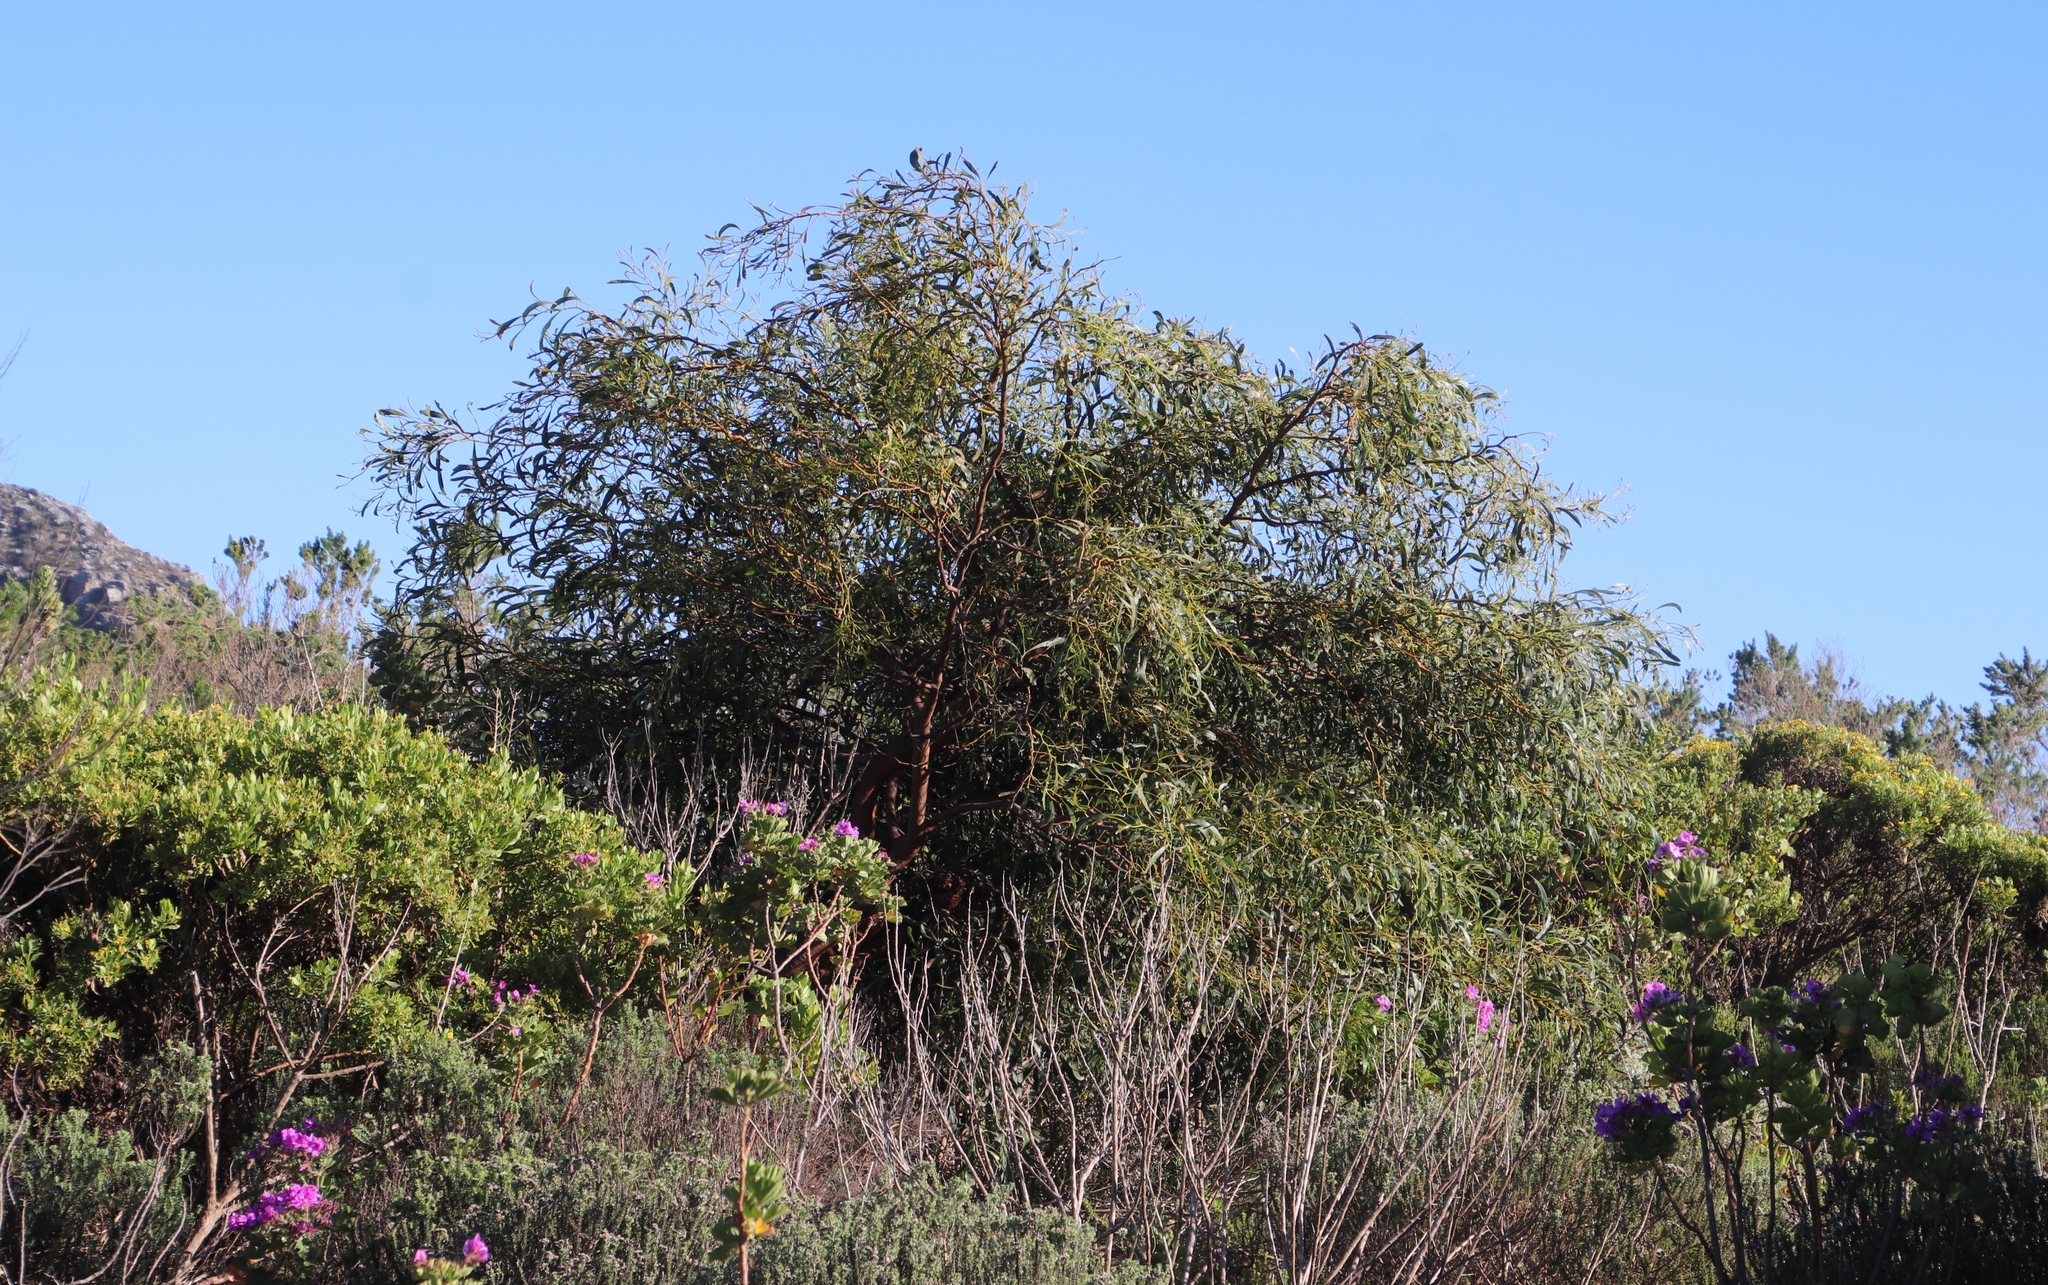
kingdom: Plantae
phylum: Tracheophyta
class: Magnoliopsida
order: Fabales
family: Fabaceae
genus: Acacia
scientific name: Acacia saligna
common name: Orange wattle
